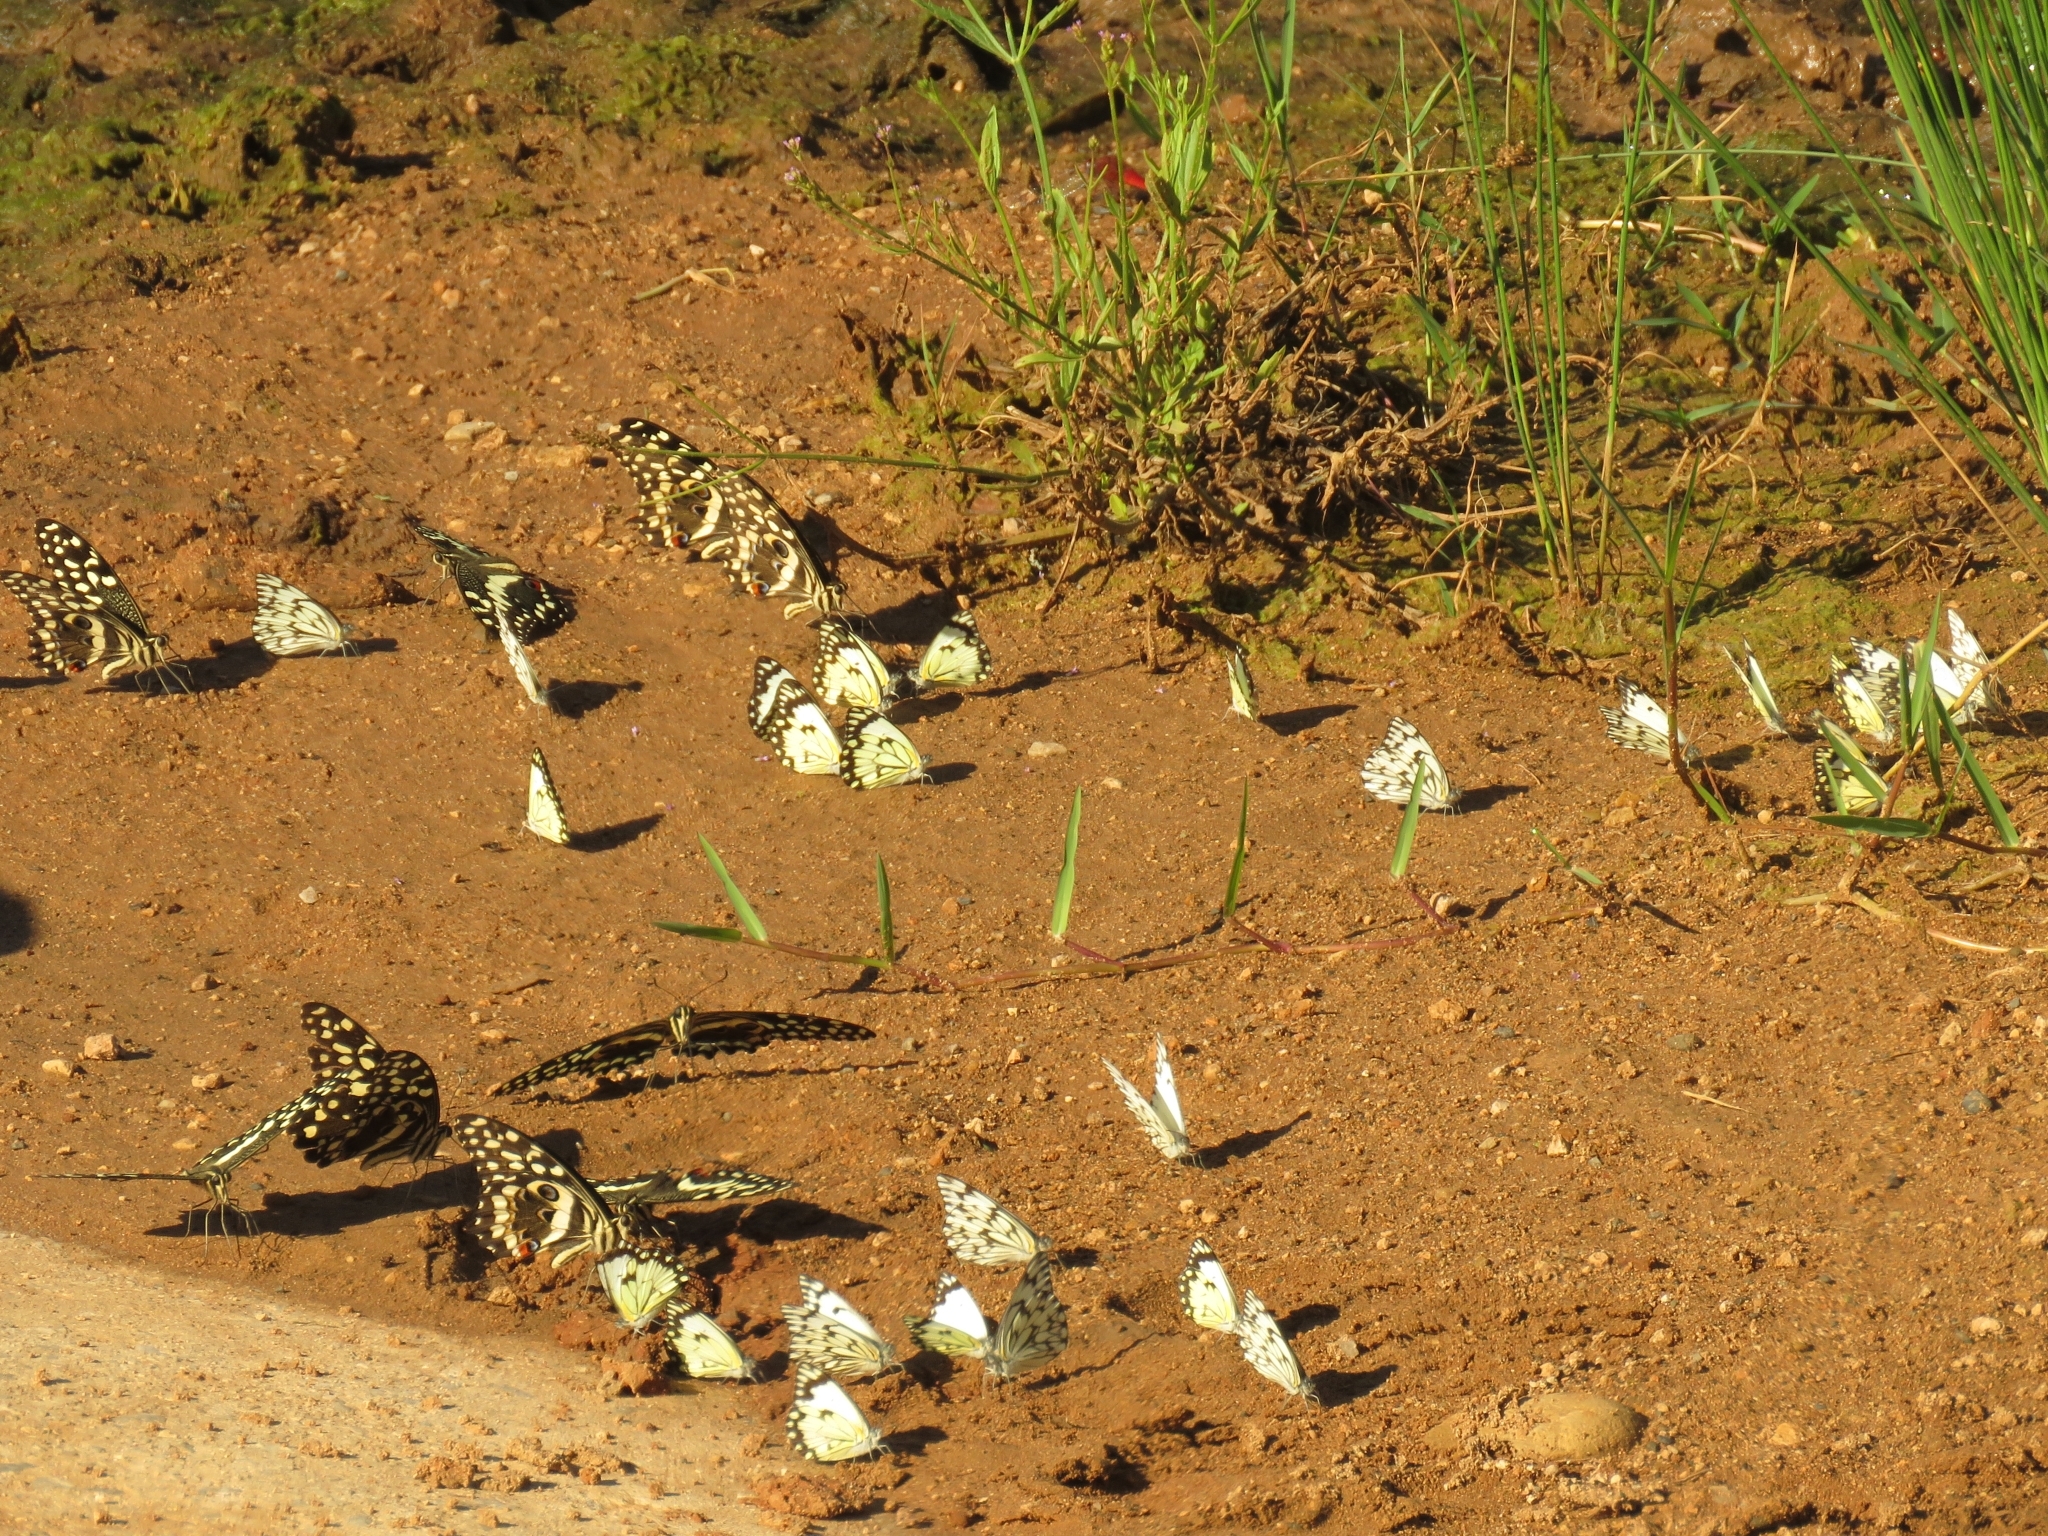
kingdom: Animalia
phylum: Arthropoda
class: Insecta
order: Lepidoptera
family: Pieridae
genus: Belenois
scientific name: Belenois gidica
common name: Pointed caper white
